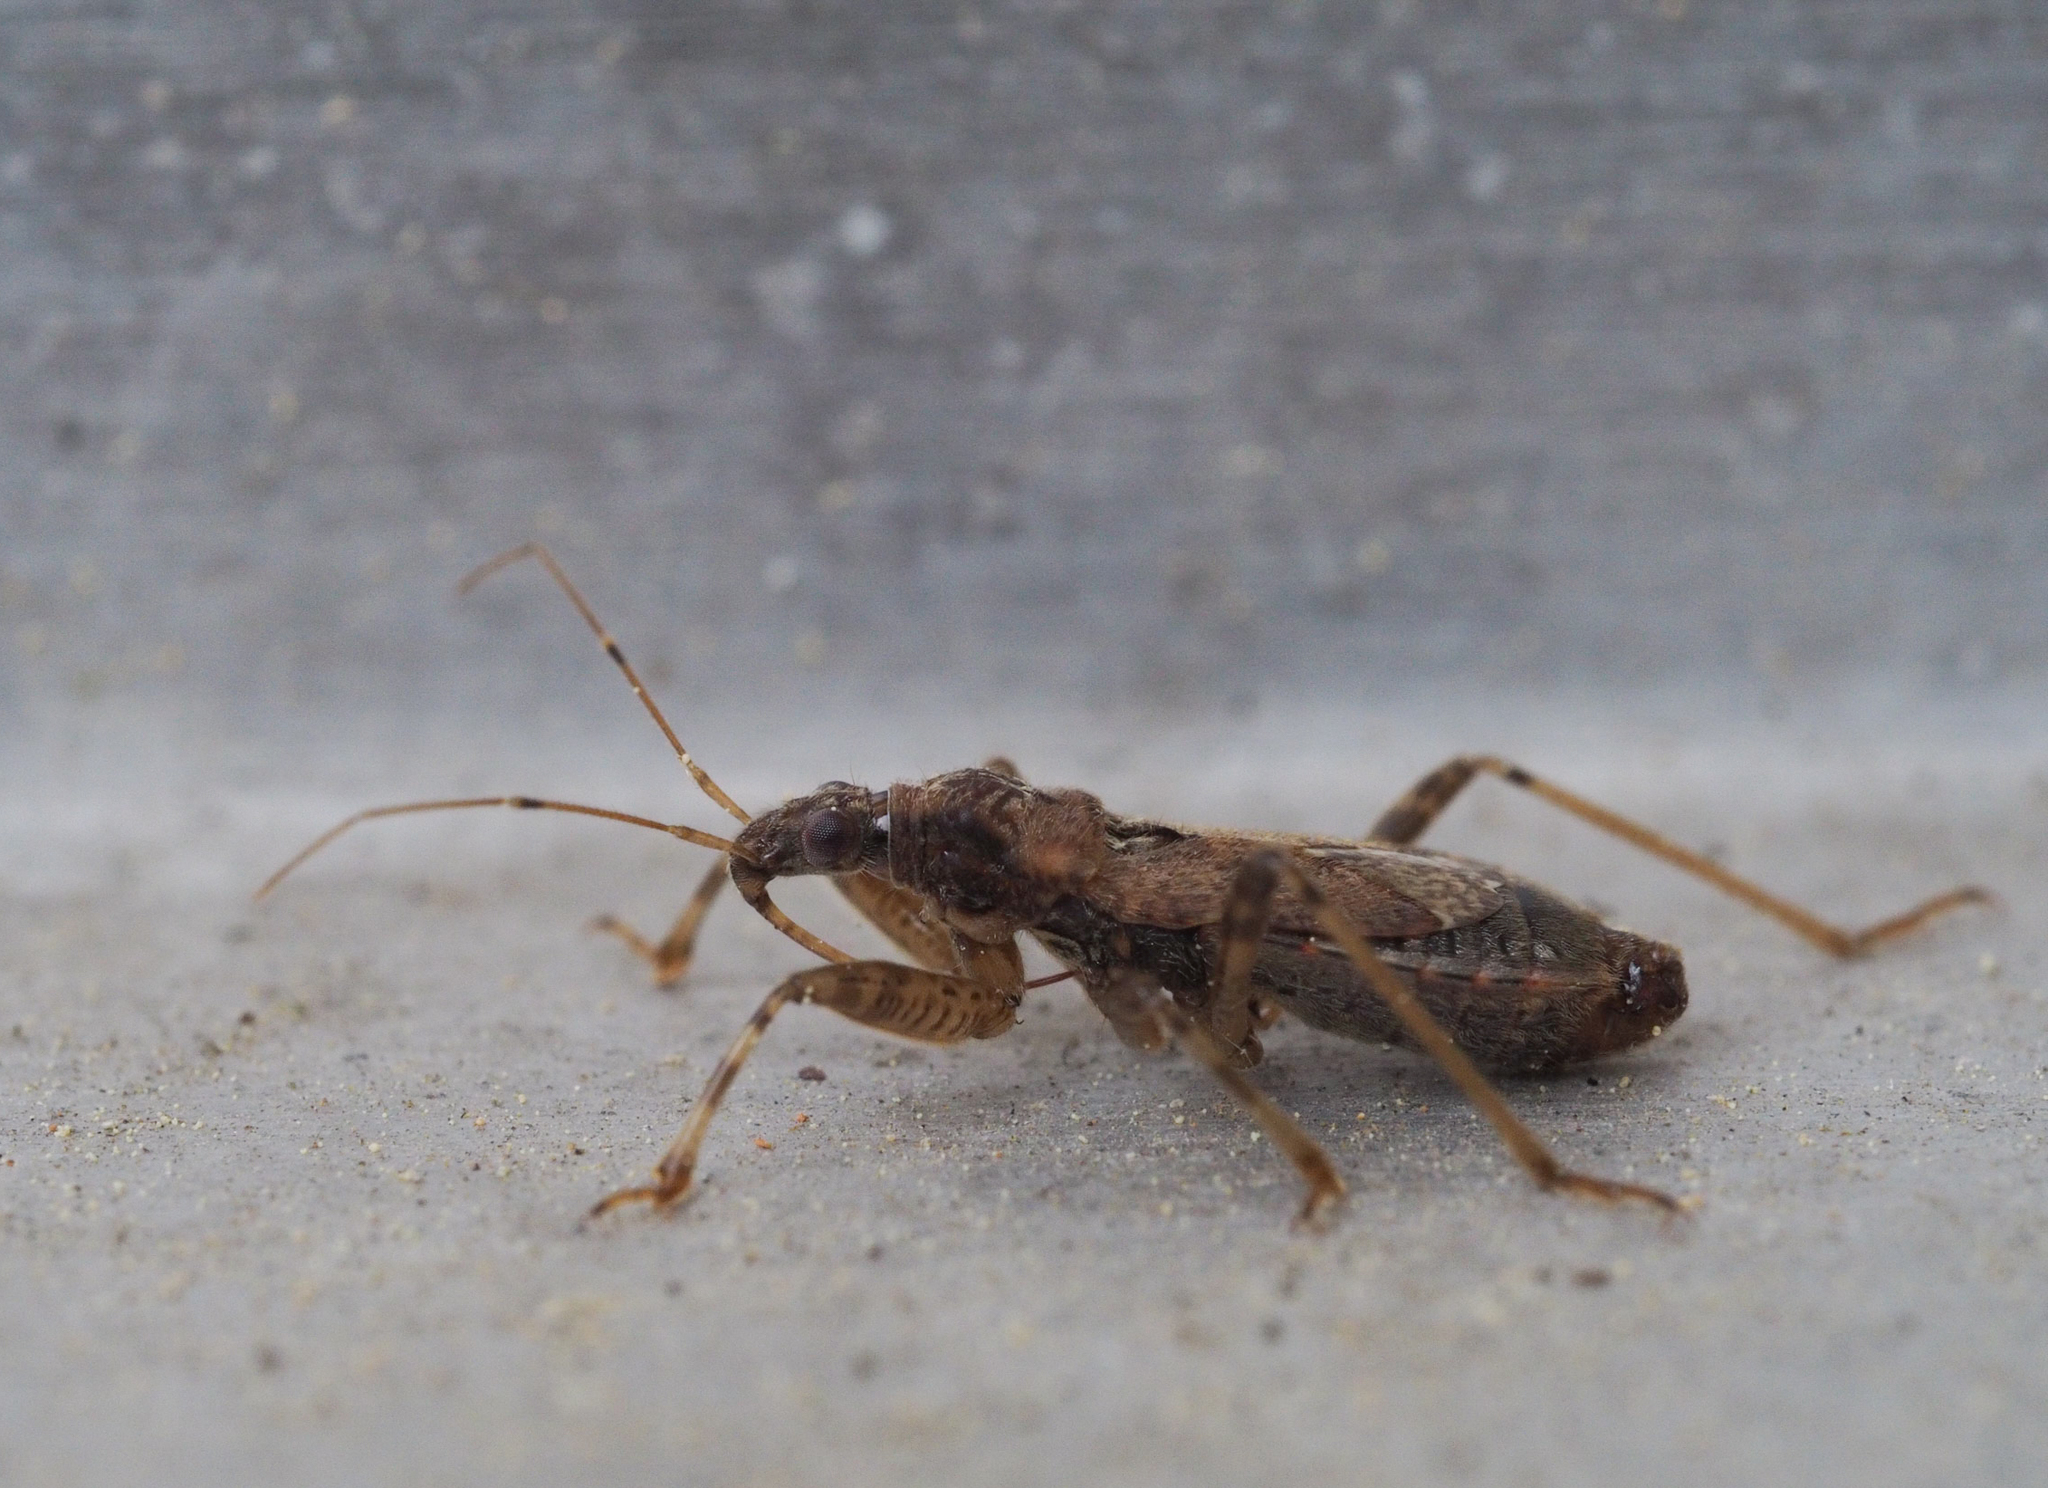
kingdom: Animalia
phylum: Arthropoda
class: Insecta
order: Hemiptera
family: Nabidae
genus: Himacerus
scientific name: Himacerus mirmicoides
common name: Ant damsel bug
